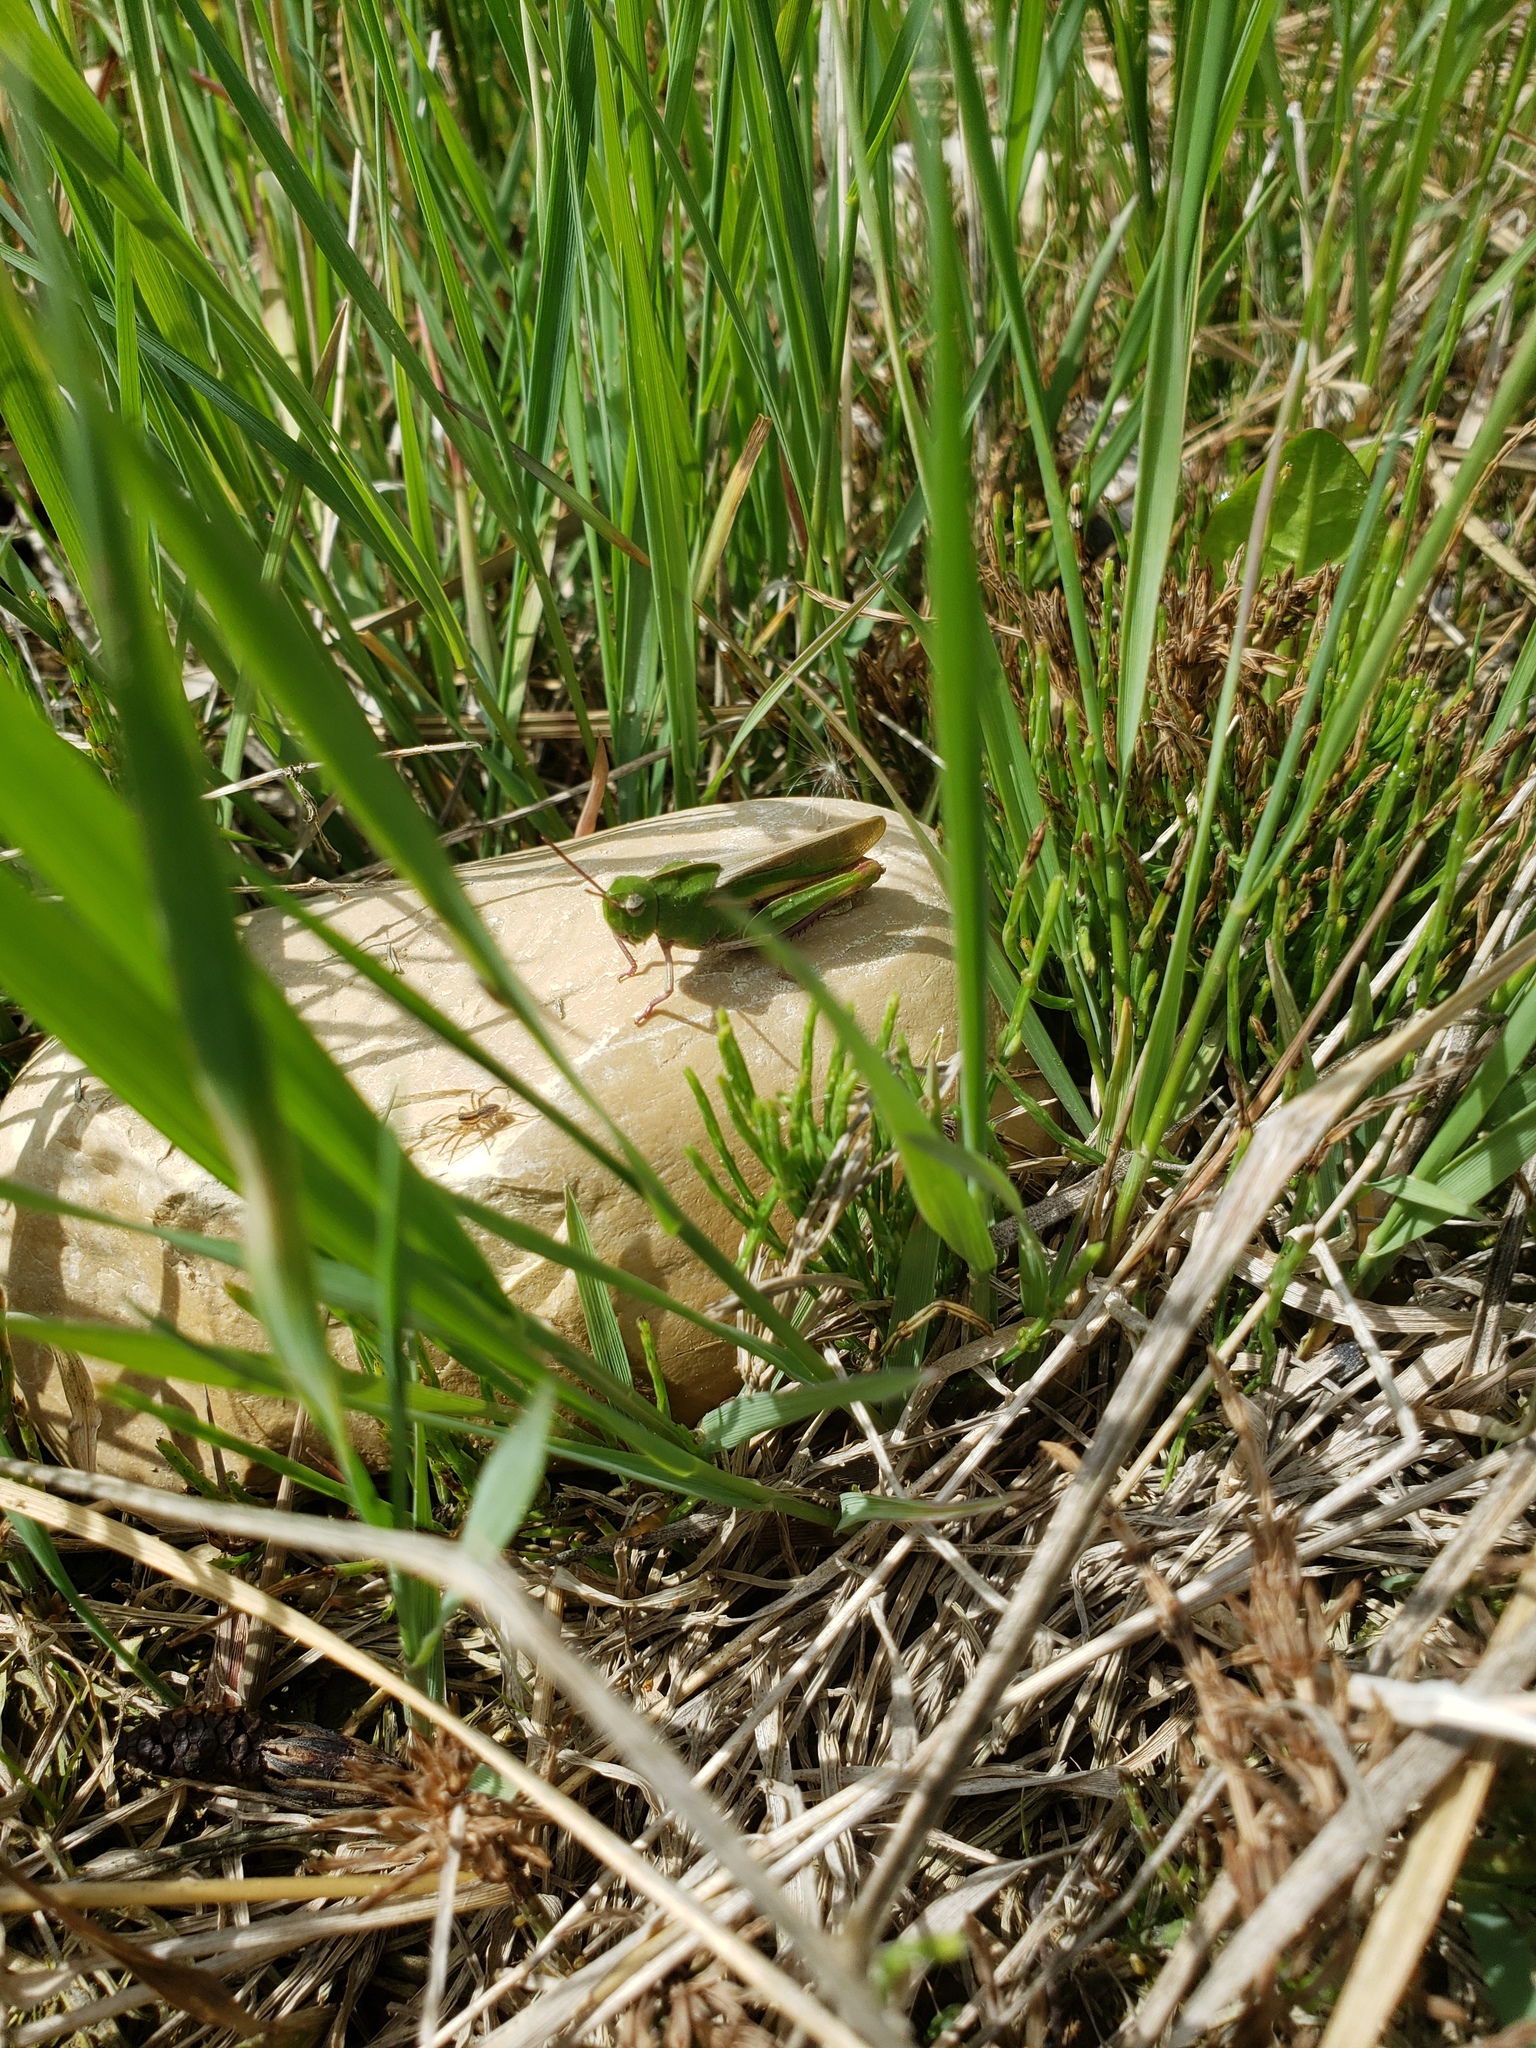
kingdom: Animalia
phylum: Arthropoda
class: Insecta
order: Orthoptera
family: Acrididae
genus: Chortophaga
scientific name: Chortophaga viridifasciata
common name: Green-striped grasshopper
